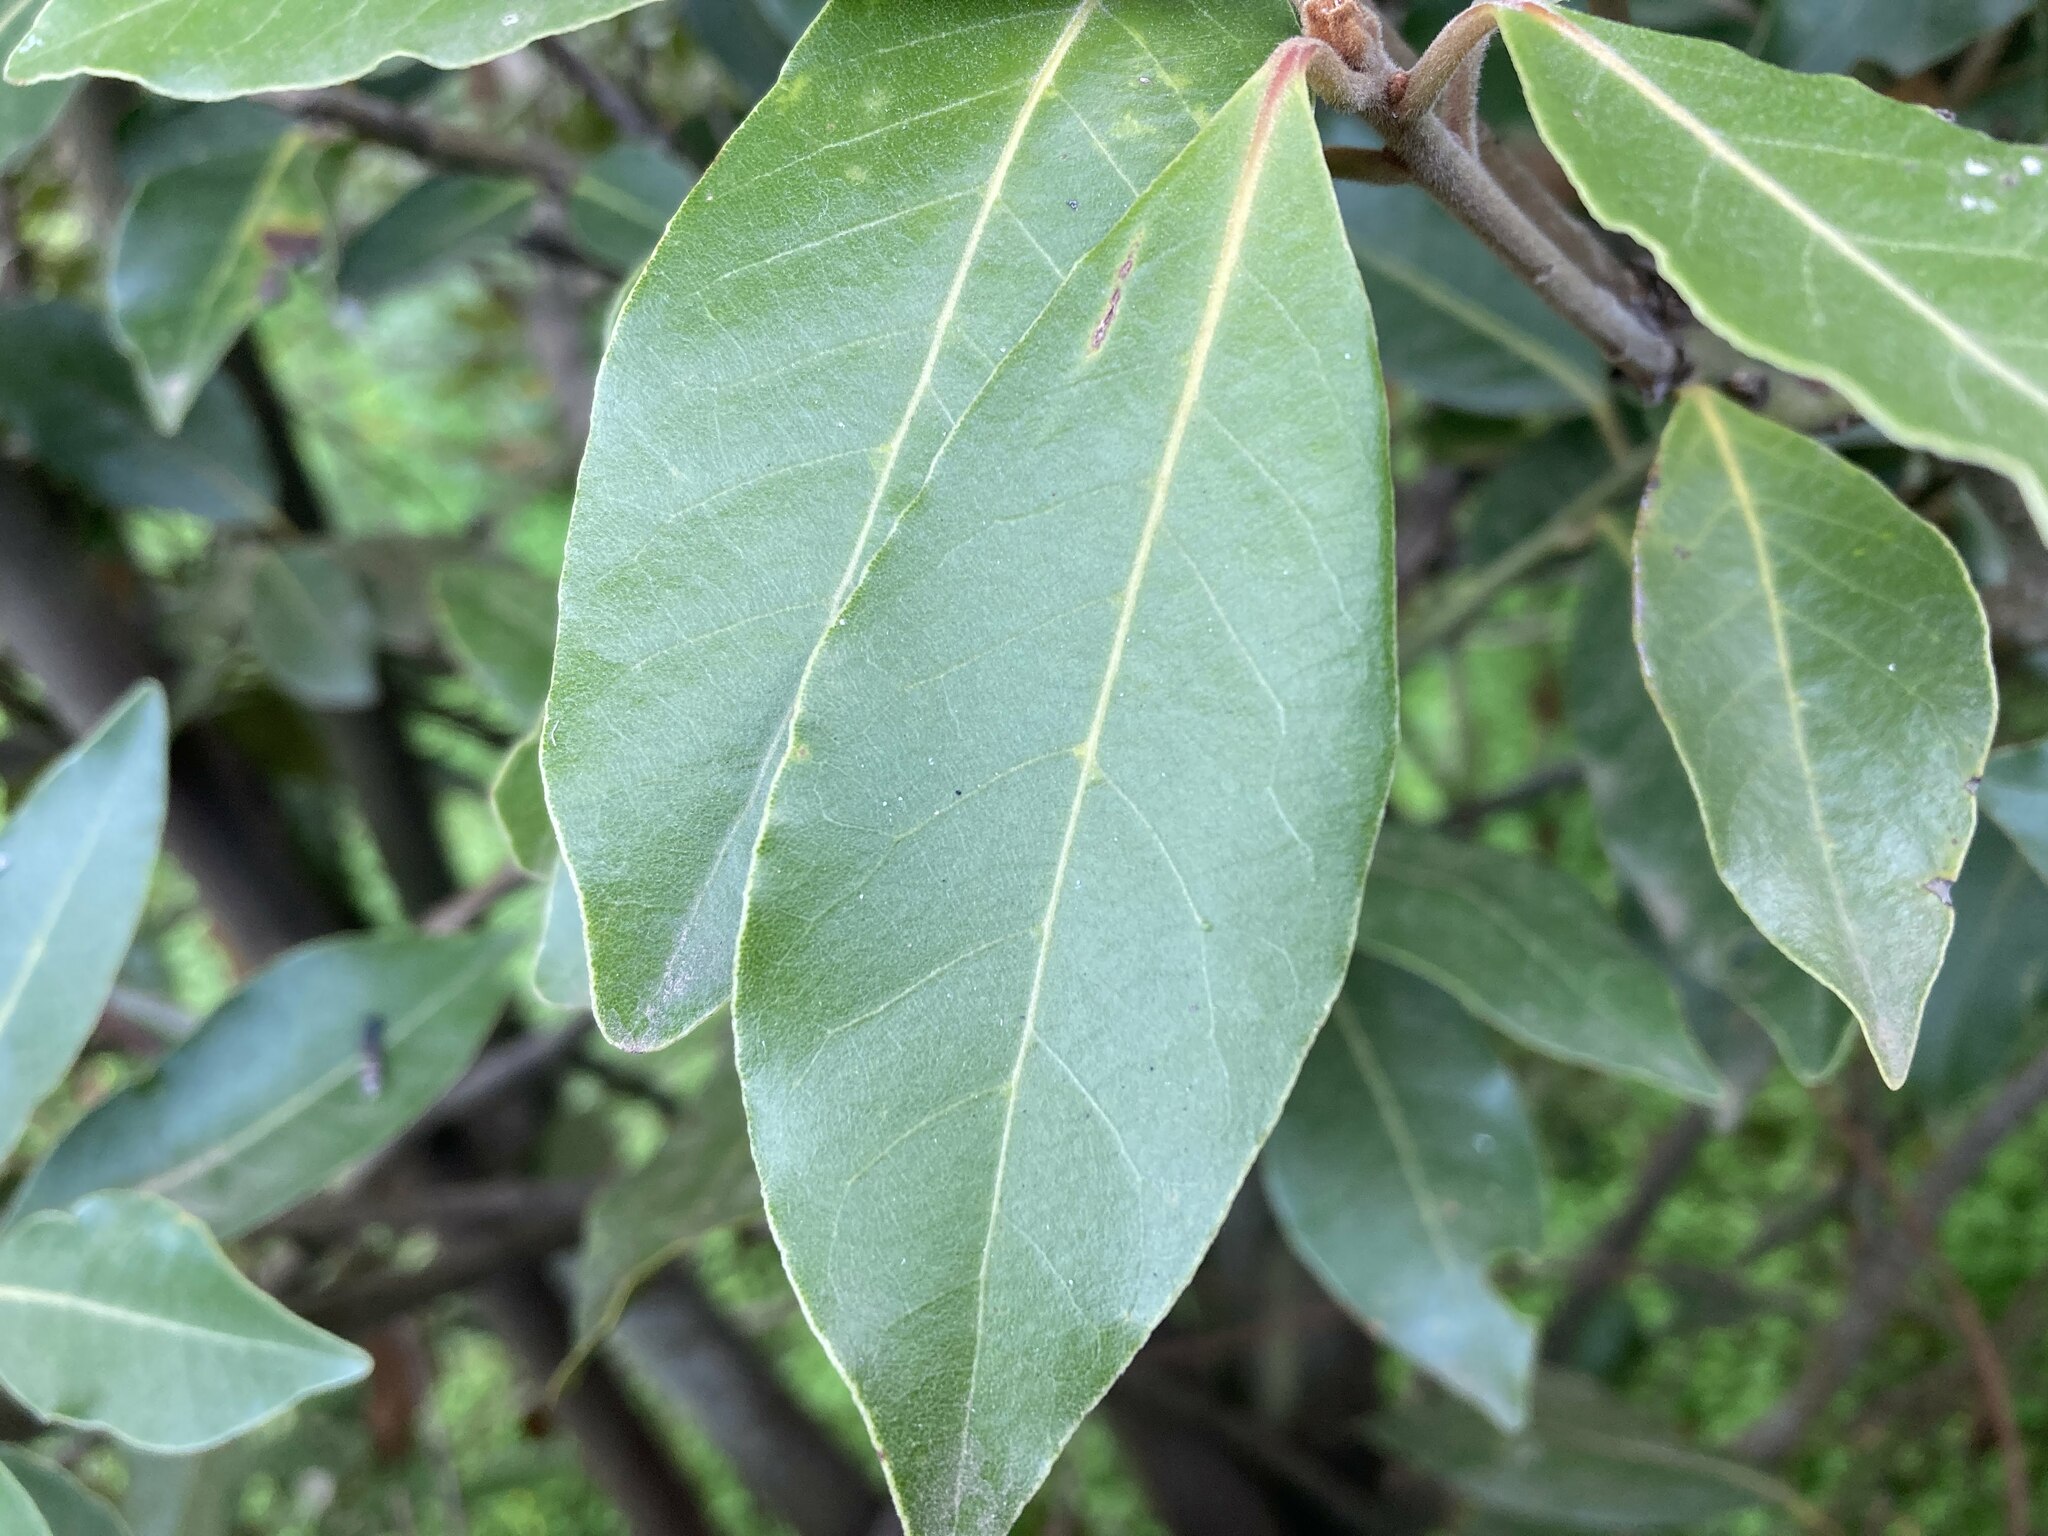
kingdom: Plantae
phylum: Tracheophyta
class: Magnoliopsida
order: Laurales
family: Lauraceae
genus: Laurus
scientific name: Laurus novocanariensis
